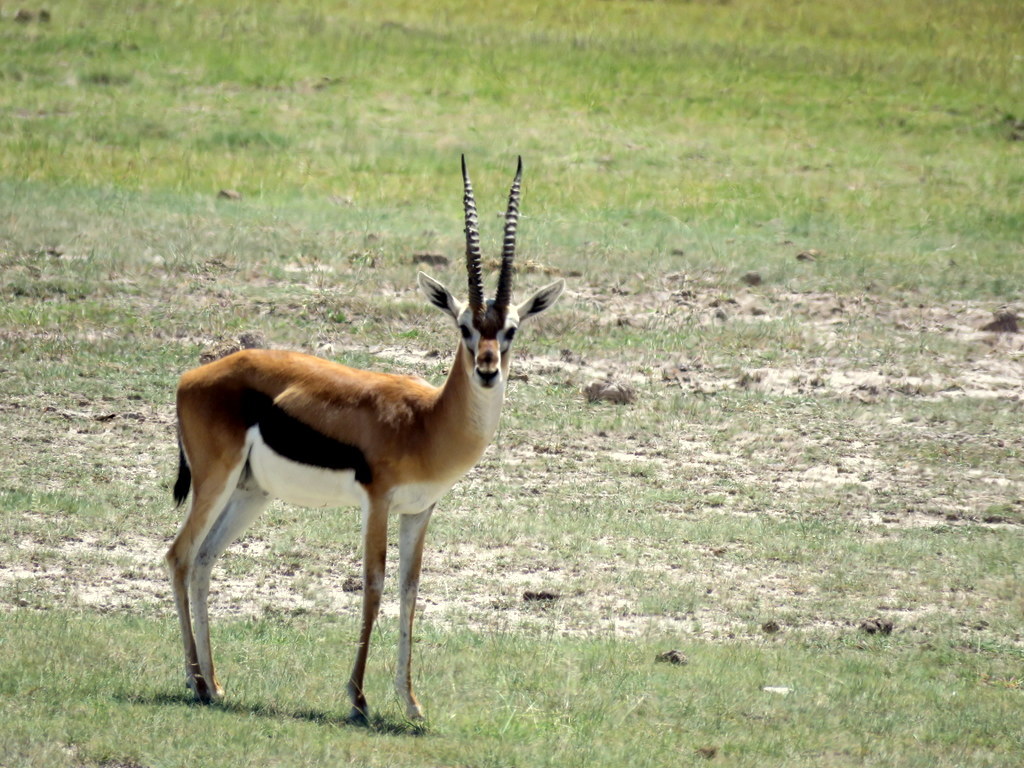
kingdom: Animalia
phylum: Chordata
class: Mammalia
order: Artiodactyla
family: Bovidae
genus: Eudorcas
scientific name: Eudorcas thomsonii
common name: Thomson's gazelle
